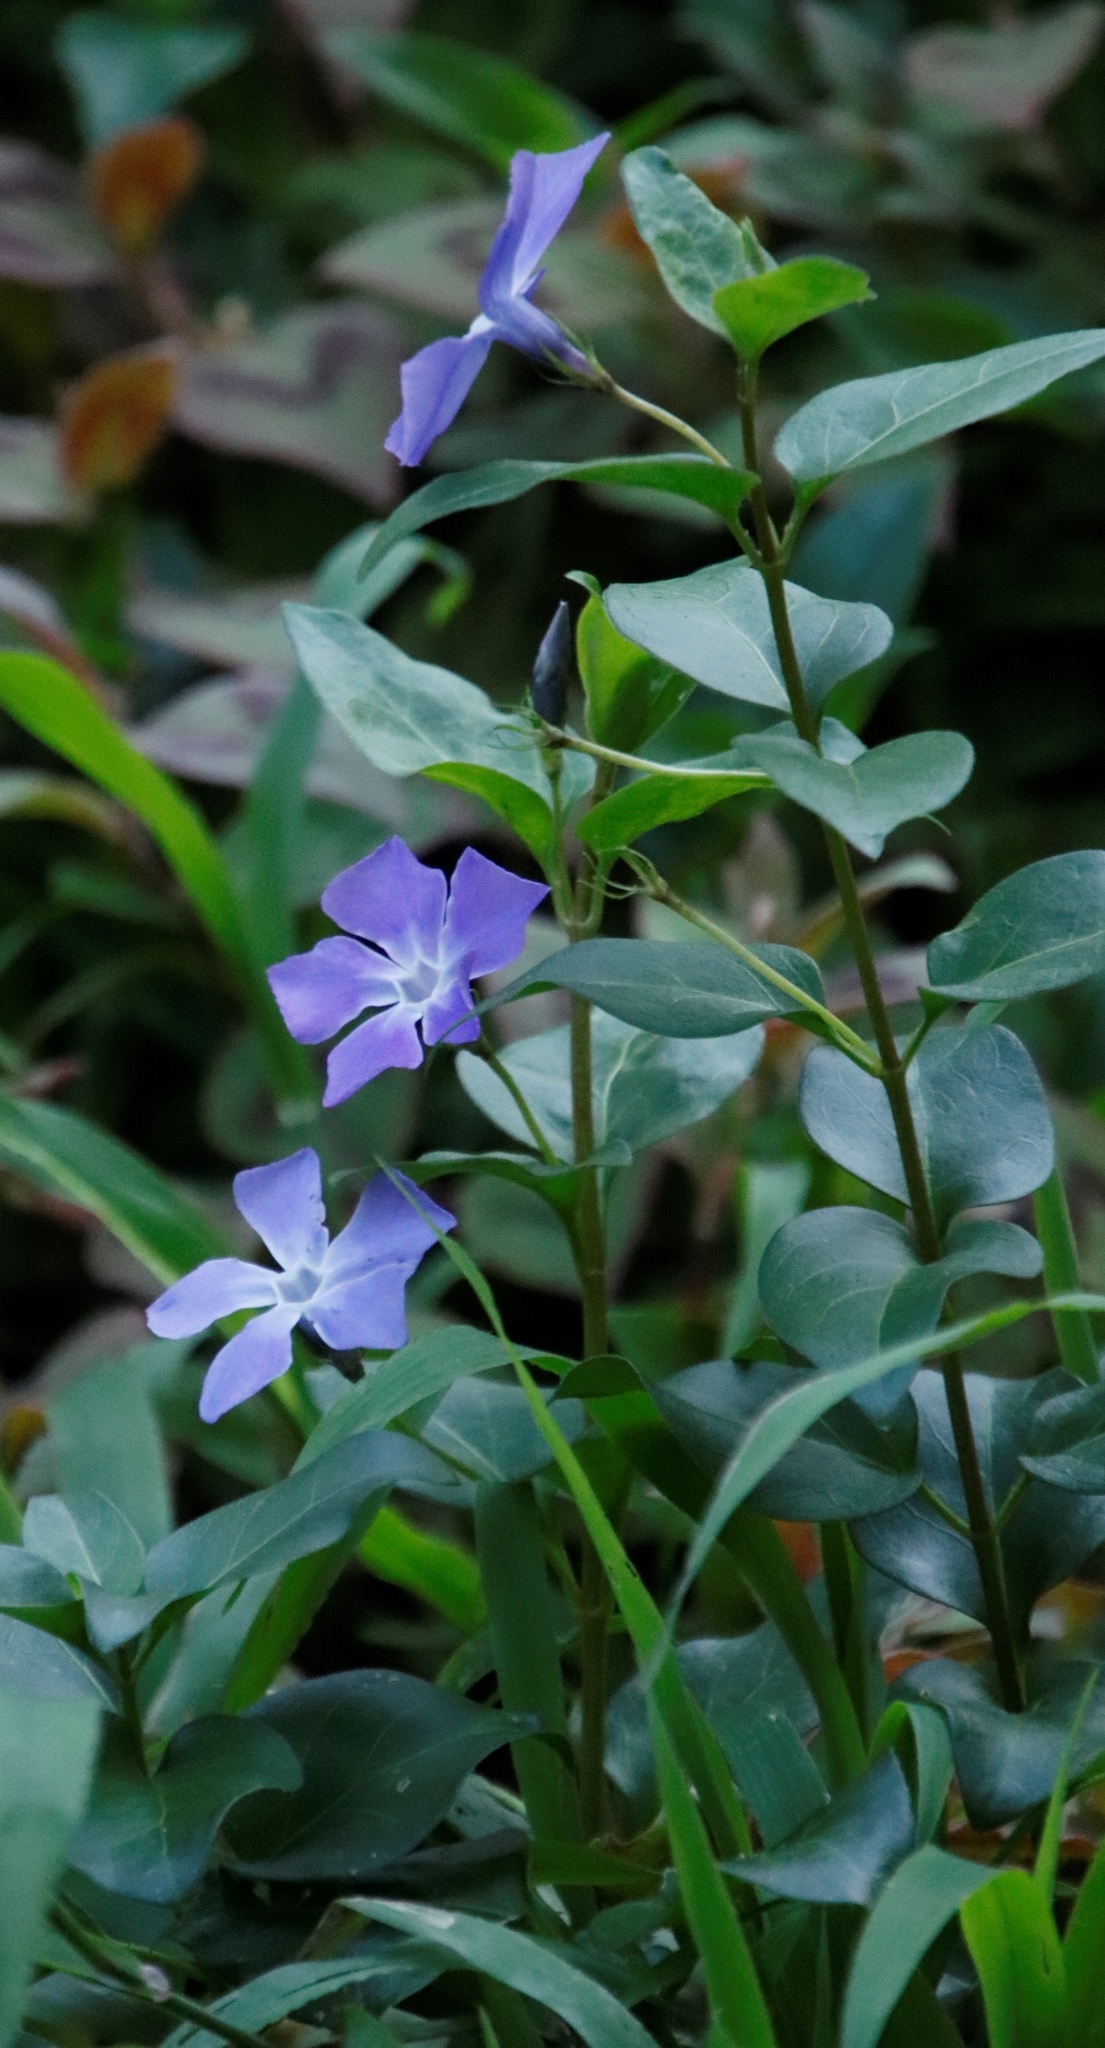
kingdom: Plantae
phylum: Tracheophyta
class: Magnoliopsida
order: Gentianales
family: Apocynaceae
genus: Vinca
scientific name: Vinca major
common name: Greater periwinkle
